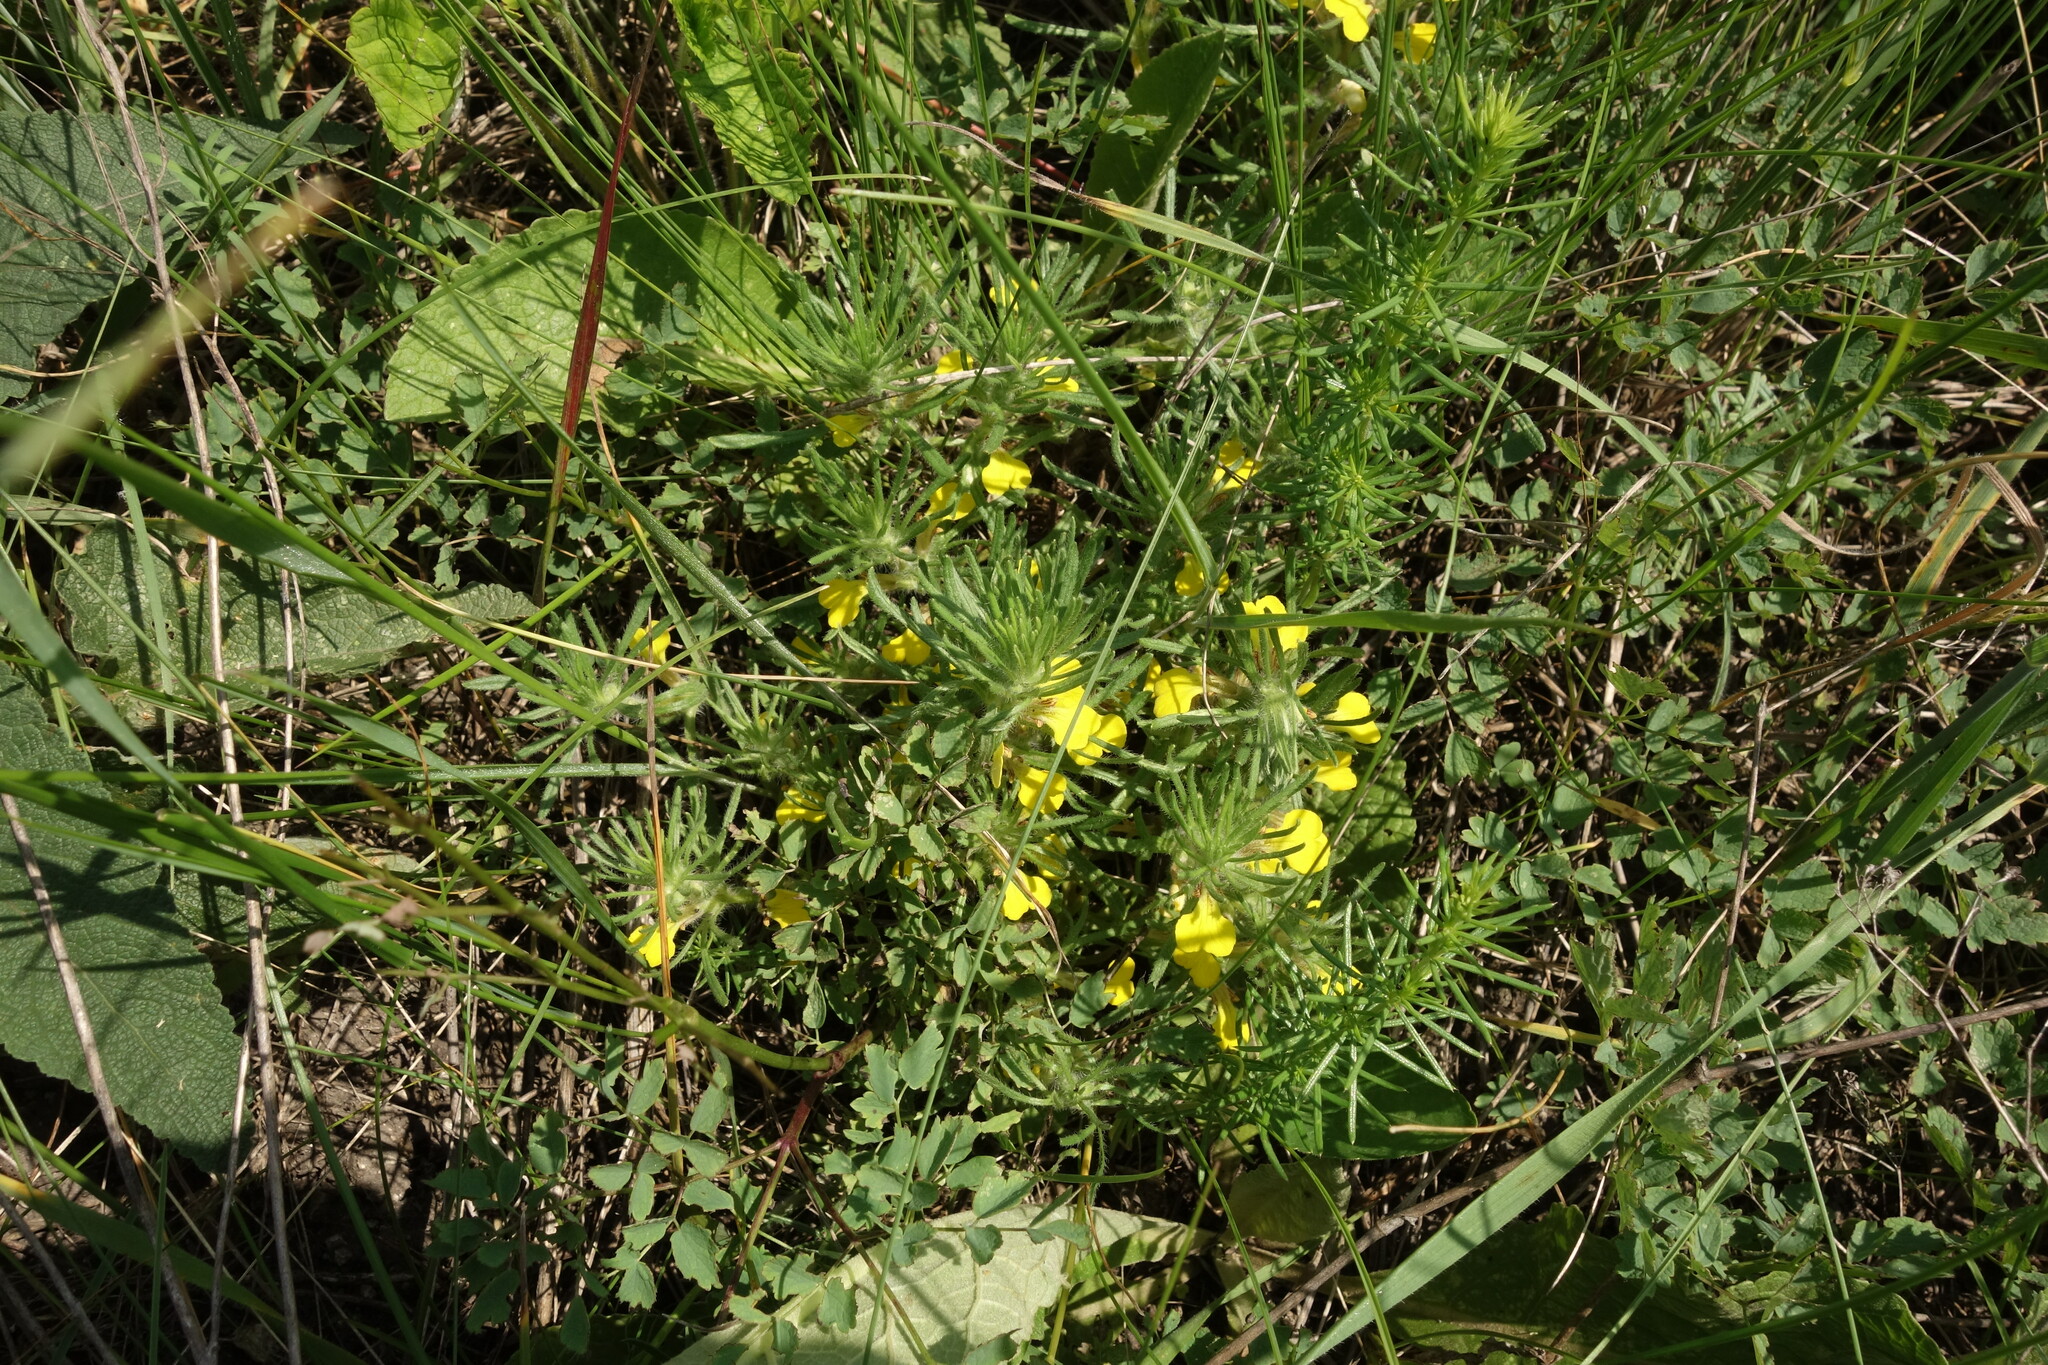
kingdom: Plantae
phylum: Tracheophyta
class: Magnoliopsida
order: Lamiales
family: Lamiaceae
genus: Ajuga
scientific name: Ajuga chamaepitys
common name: Ground-pine
